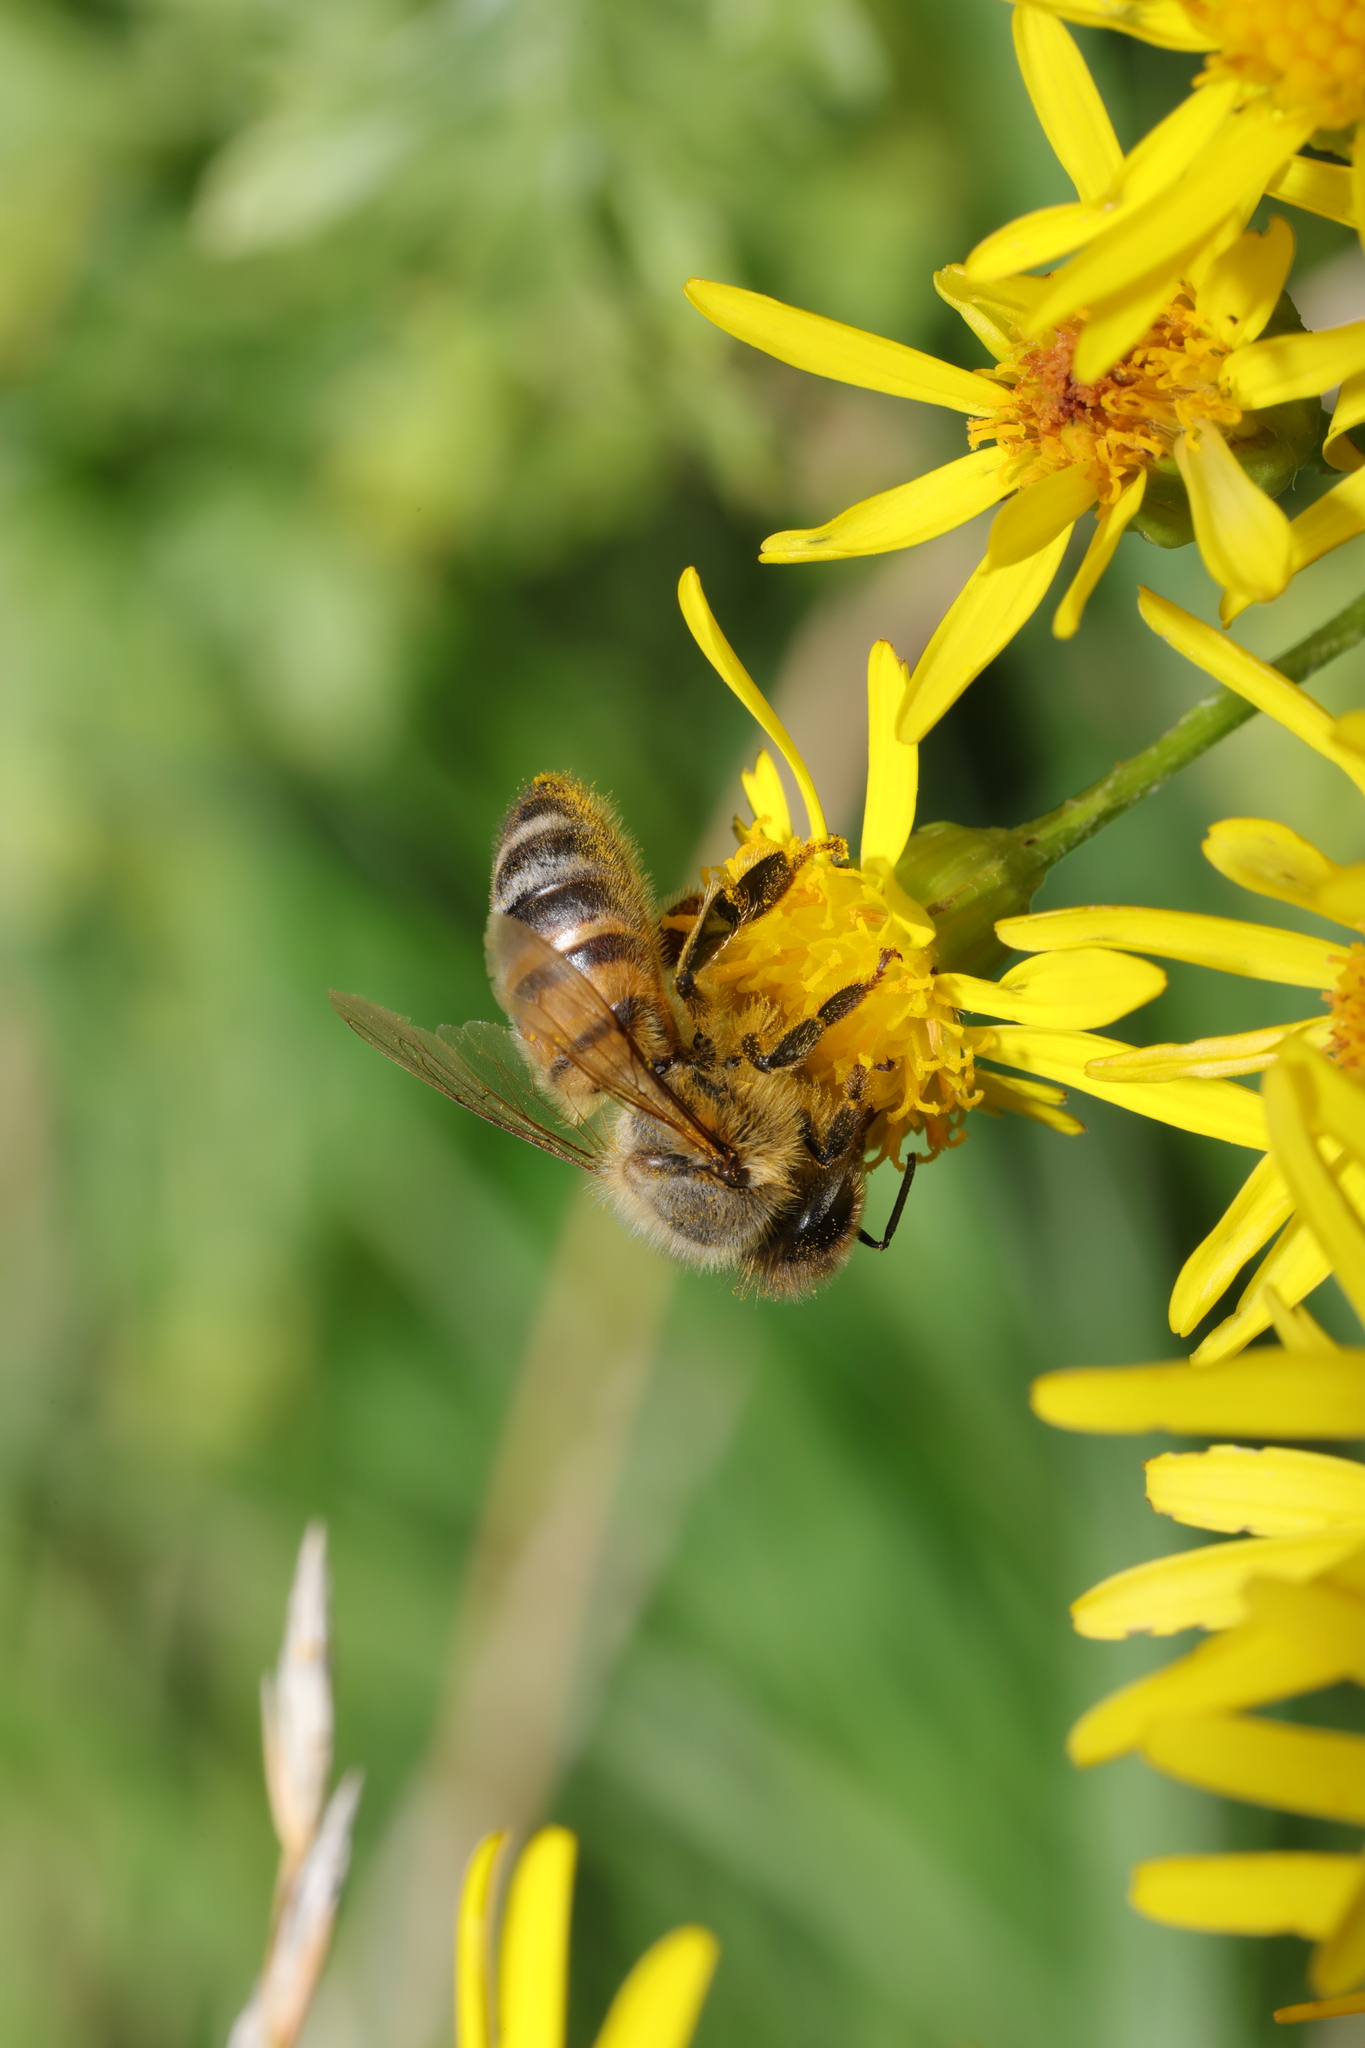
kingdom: Animalia
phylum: Arthropoda
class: Insecta
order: Hymenoptera
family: Apidae
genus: Apis
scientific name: Apis mellifera
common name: Honey bee
